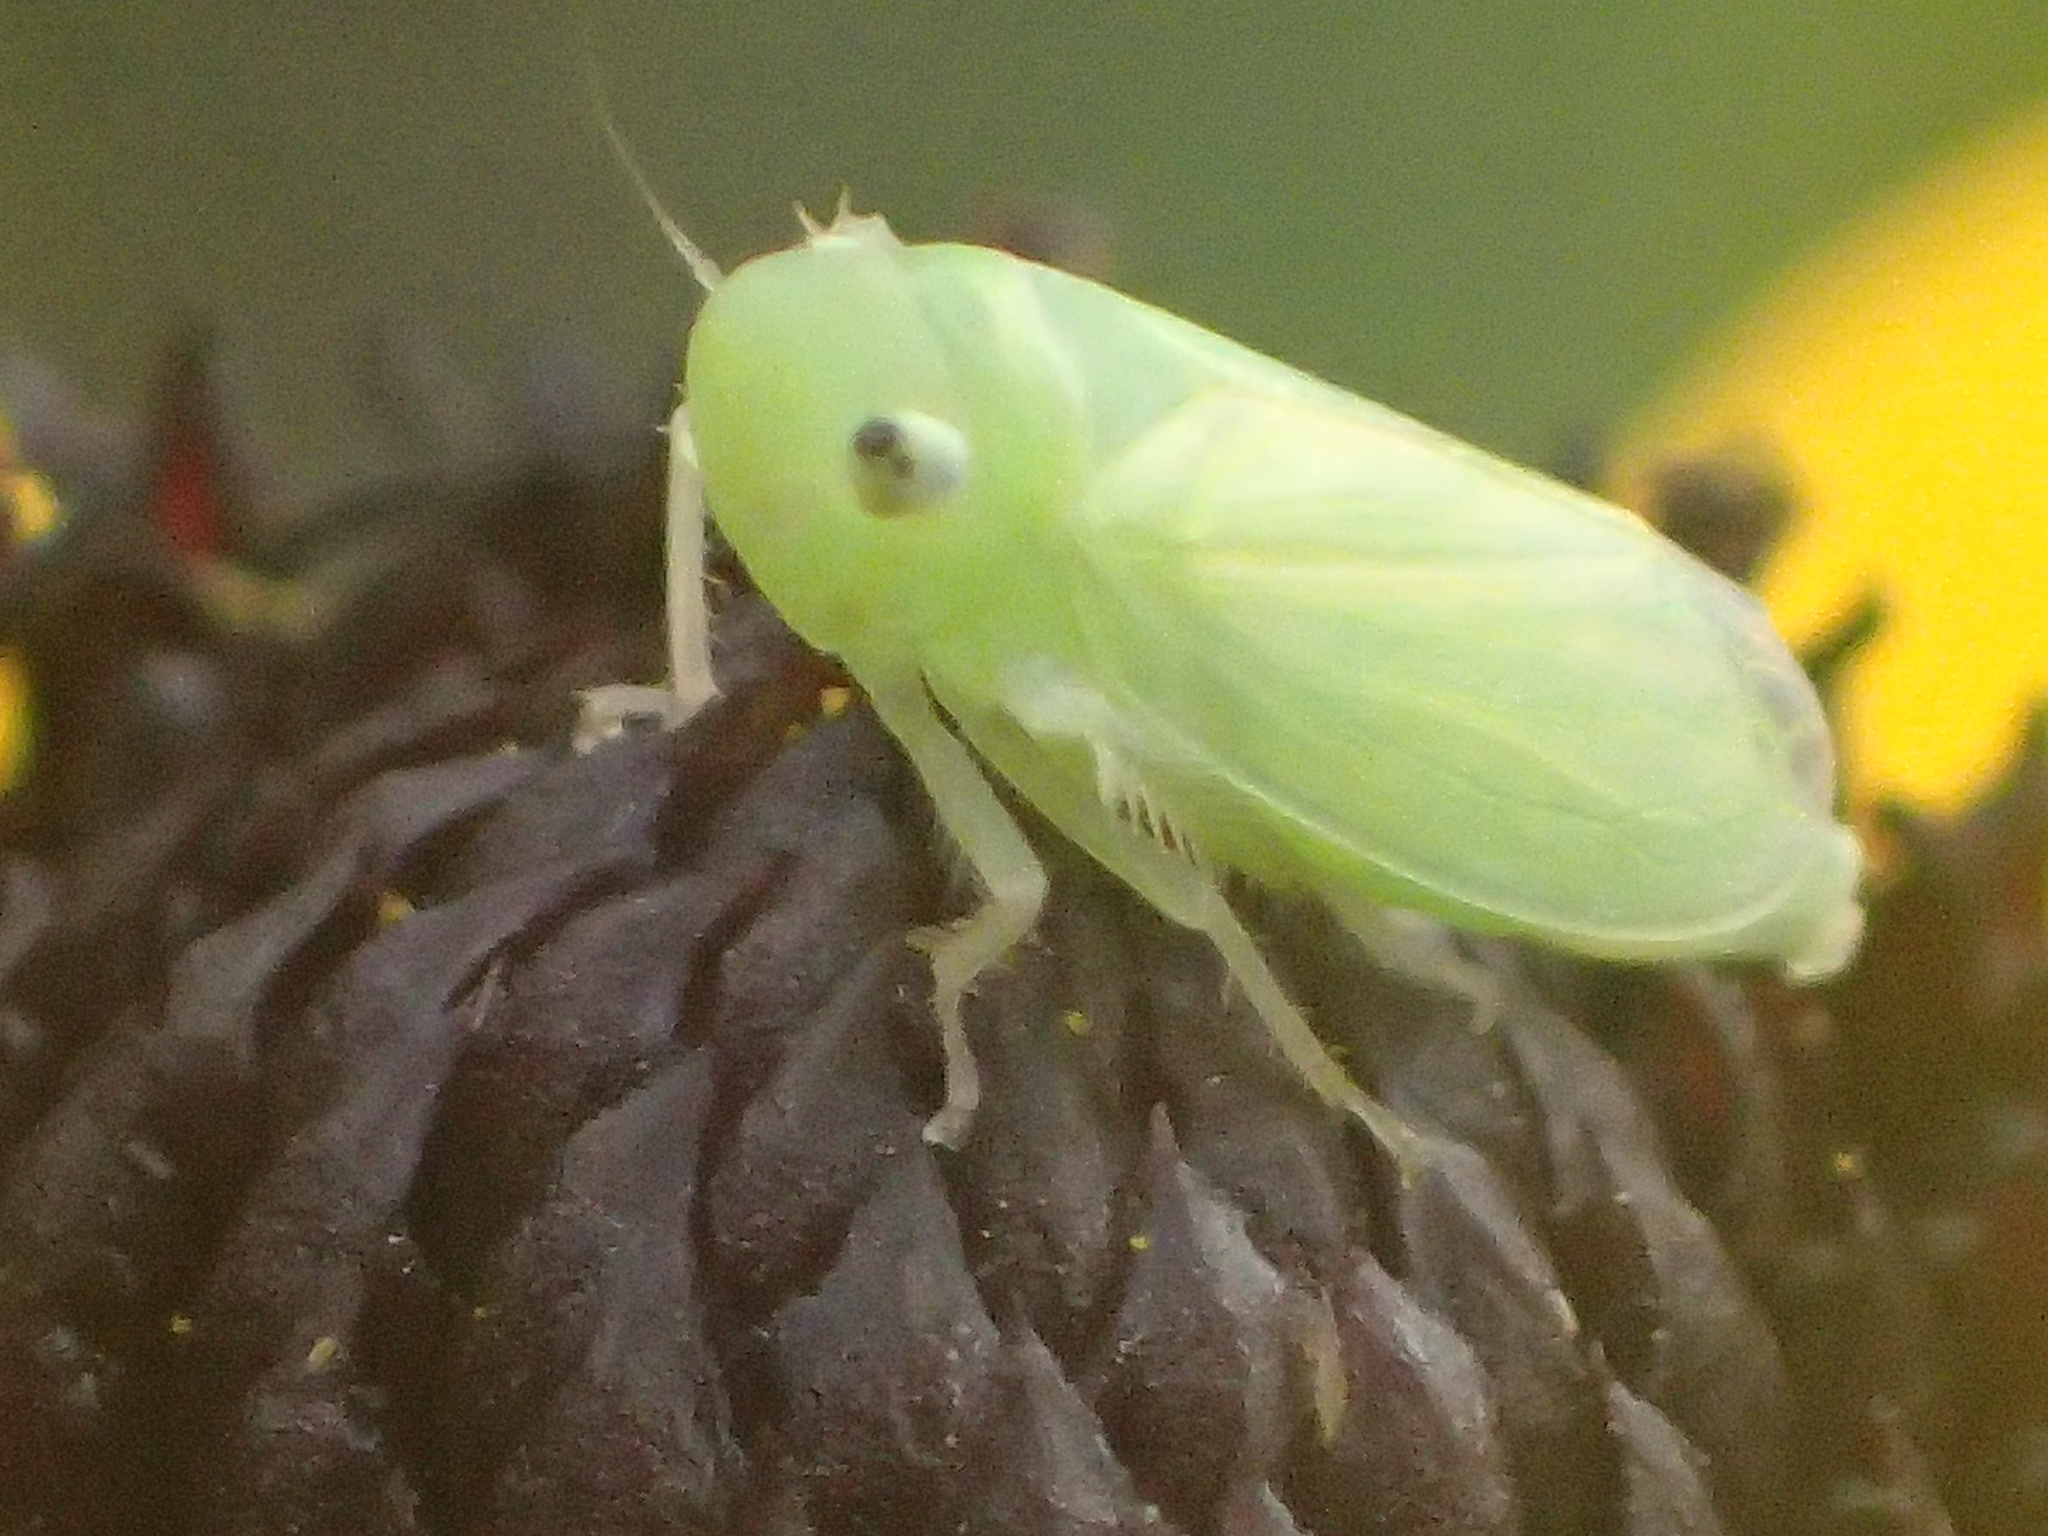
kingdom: Animalia
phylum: Arthropoda
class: Insecta
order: Hemiptera
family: Cicadellidae
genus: Neocoelidia
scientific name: Neocoelidia tumidifrons
